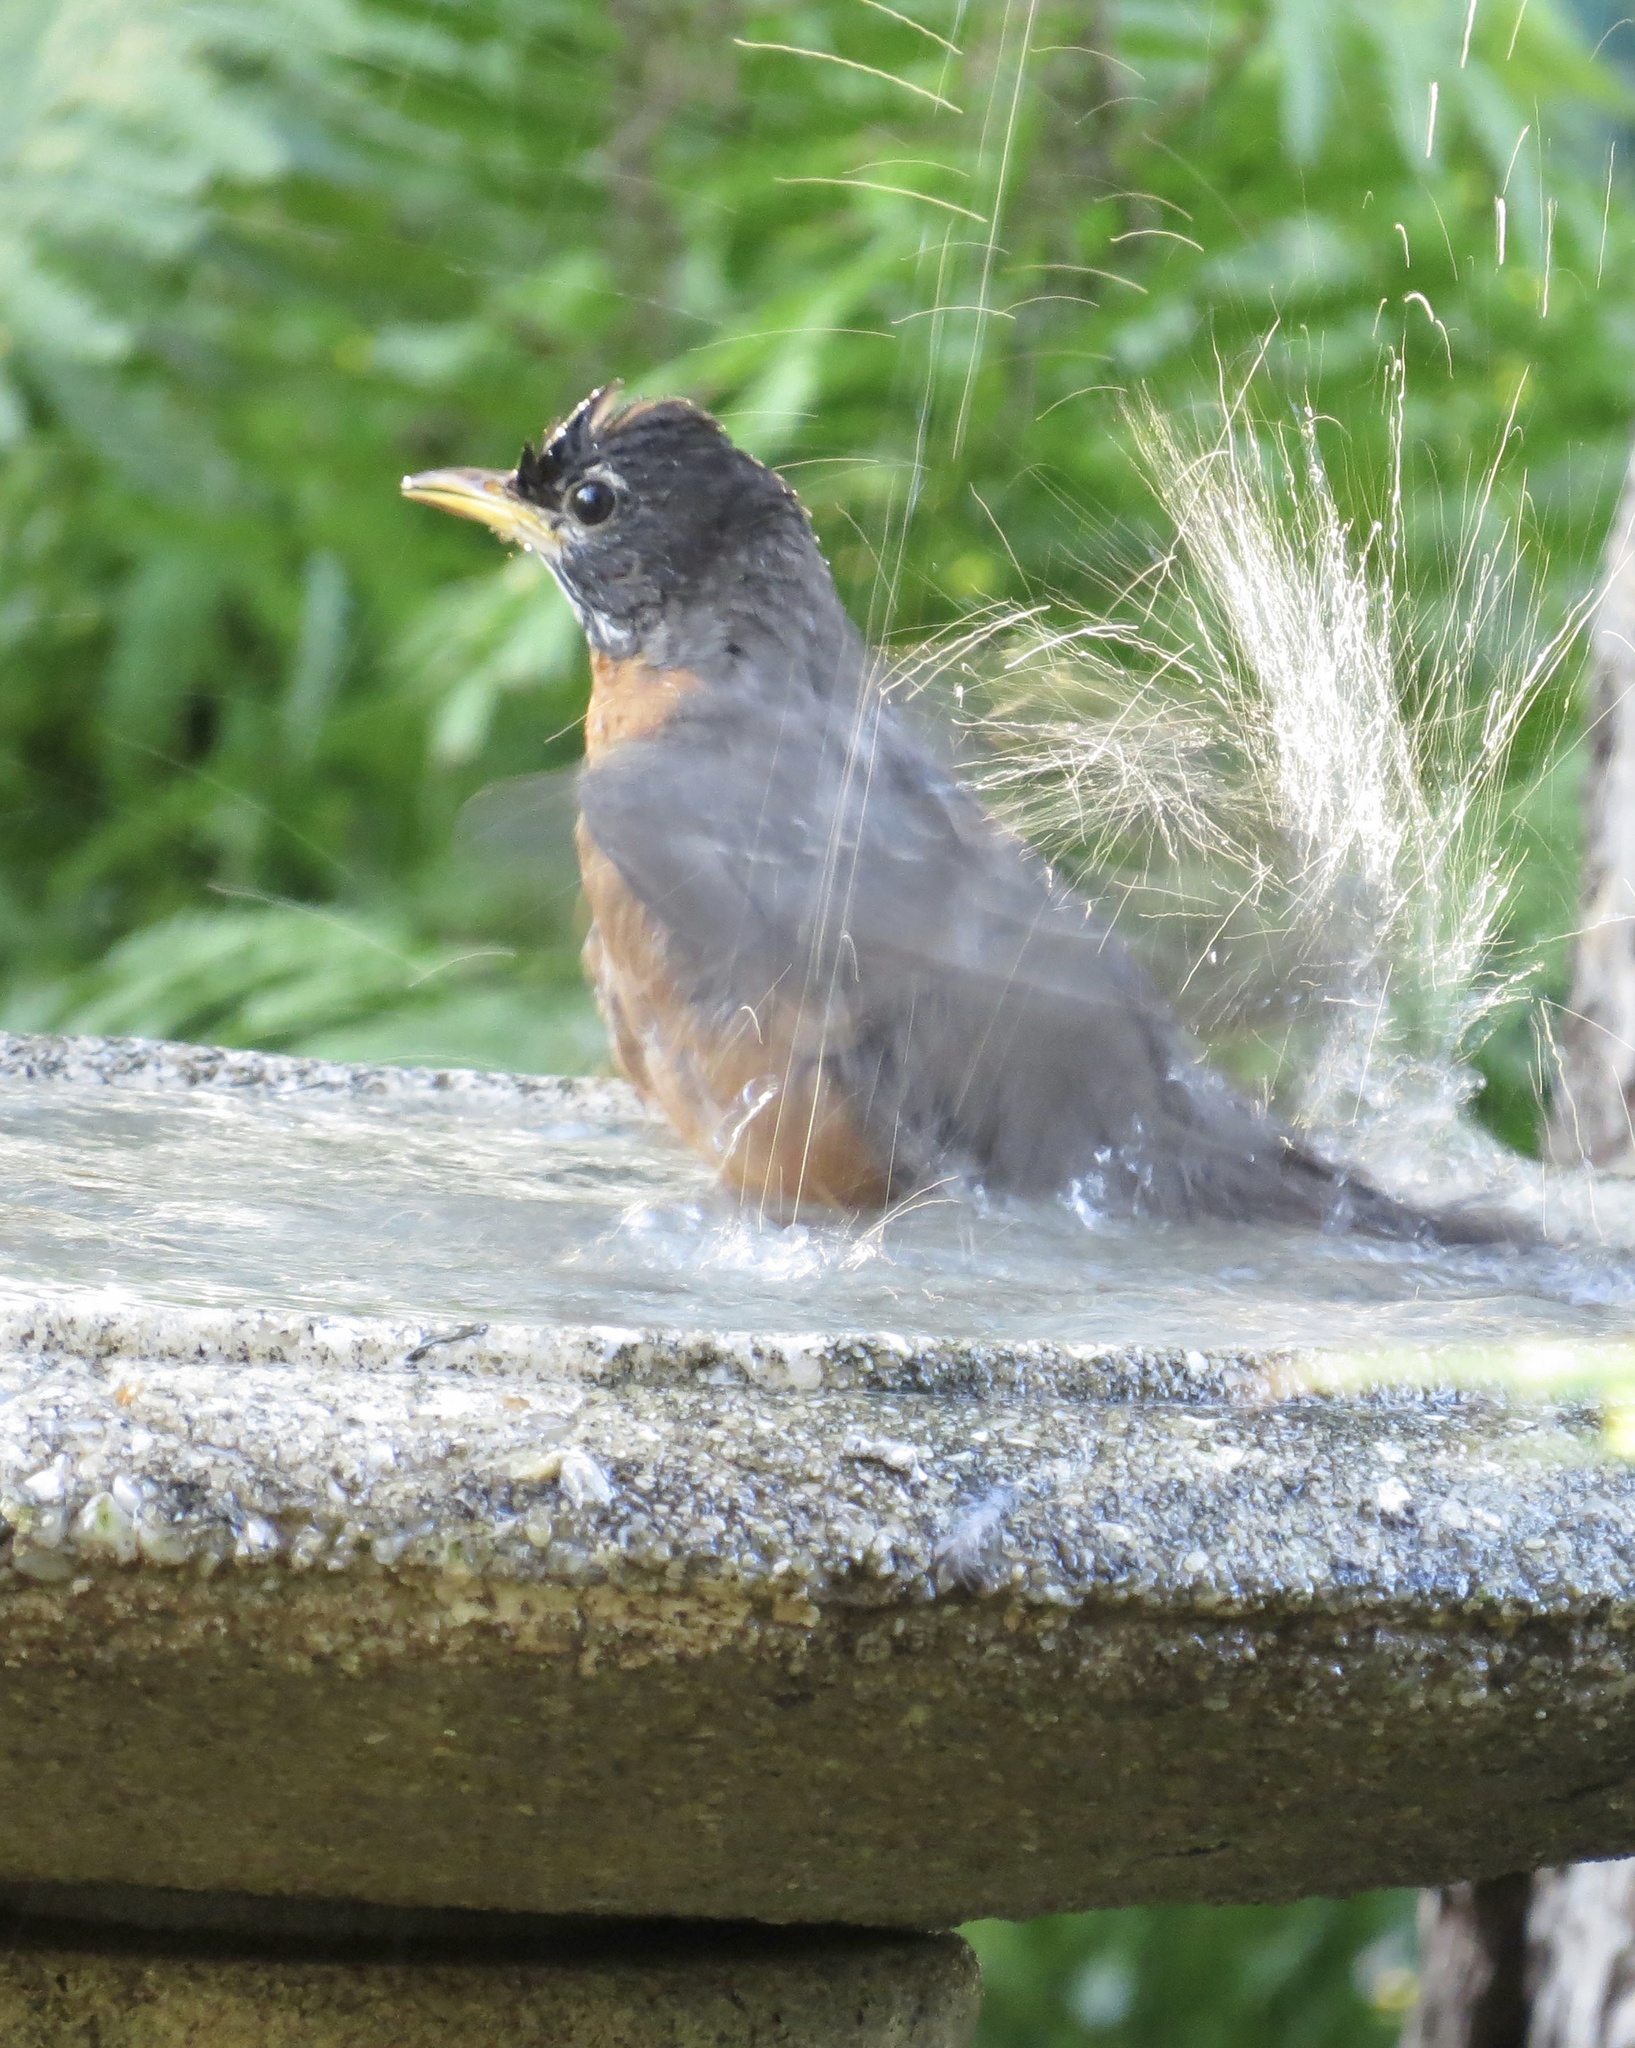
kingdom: Animalia
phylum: Chordata
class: Aves
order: Passeriformes
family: Turdidae
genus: Turdus
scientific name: Turdus migratorius
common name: American robin
